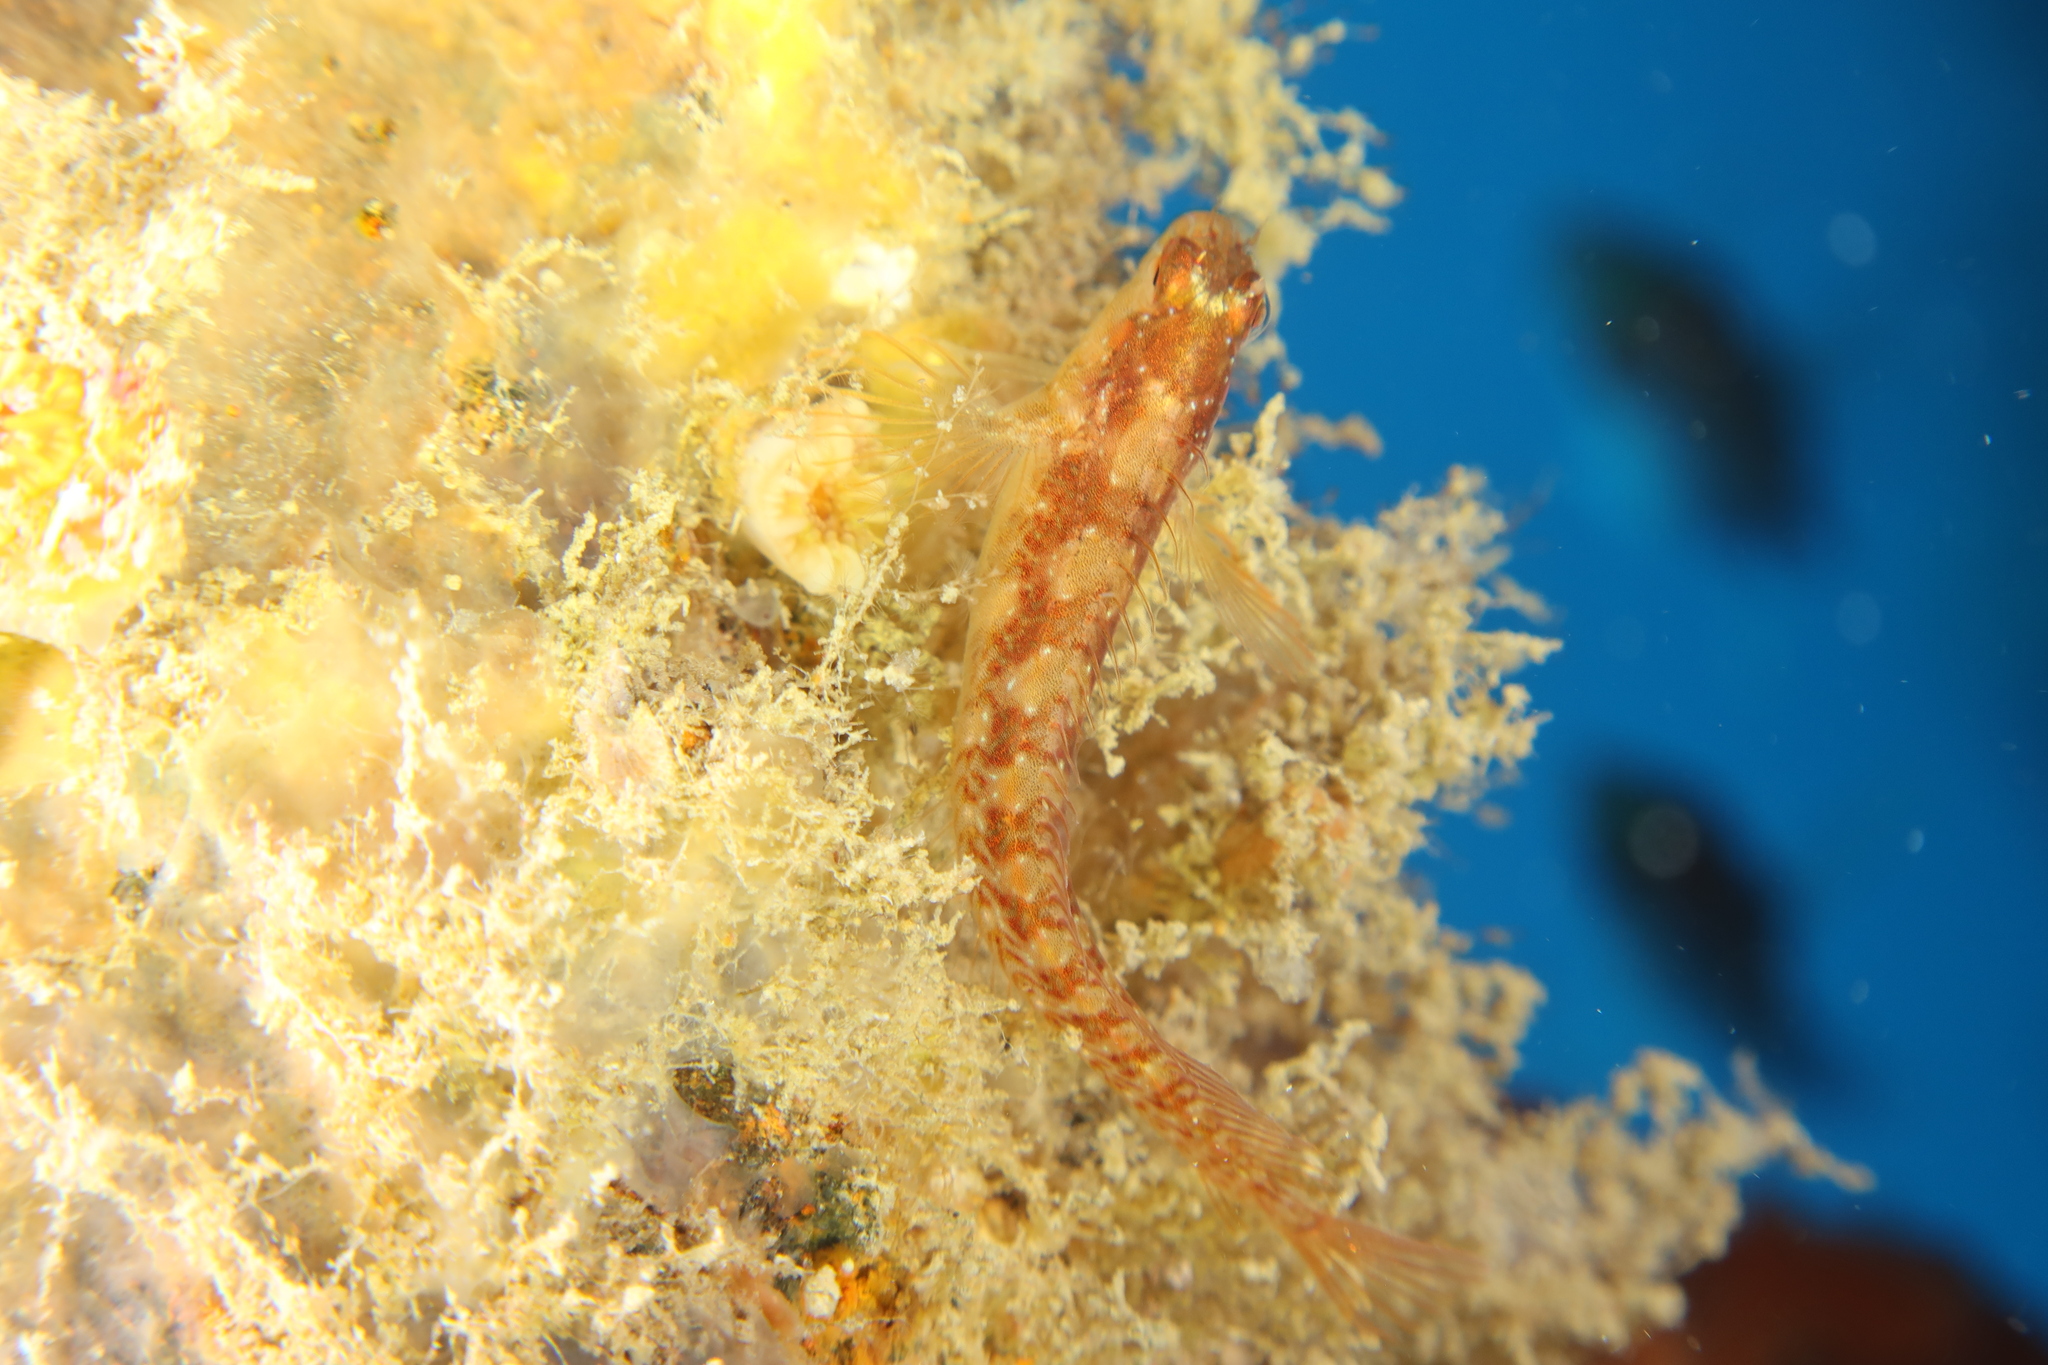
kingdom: Animalia
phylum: Chordata
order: Perciformes
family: Blenniidae
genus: Parablennius
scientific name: Parablennius rouxi
